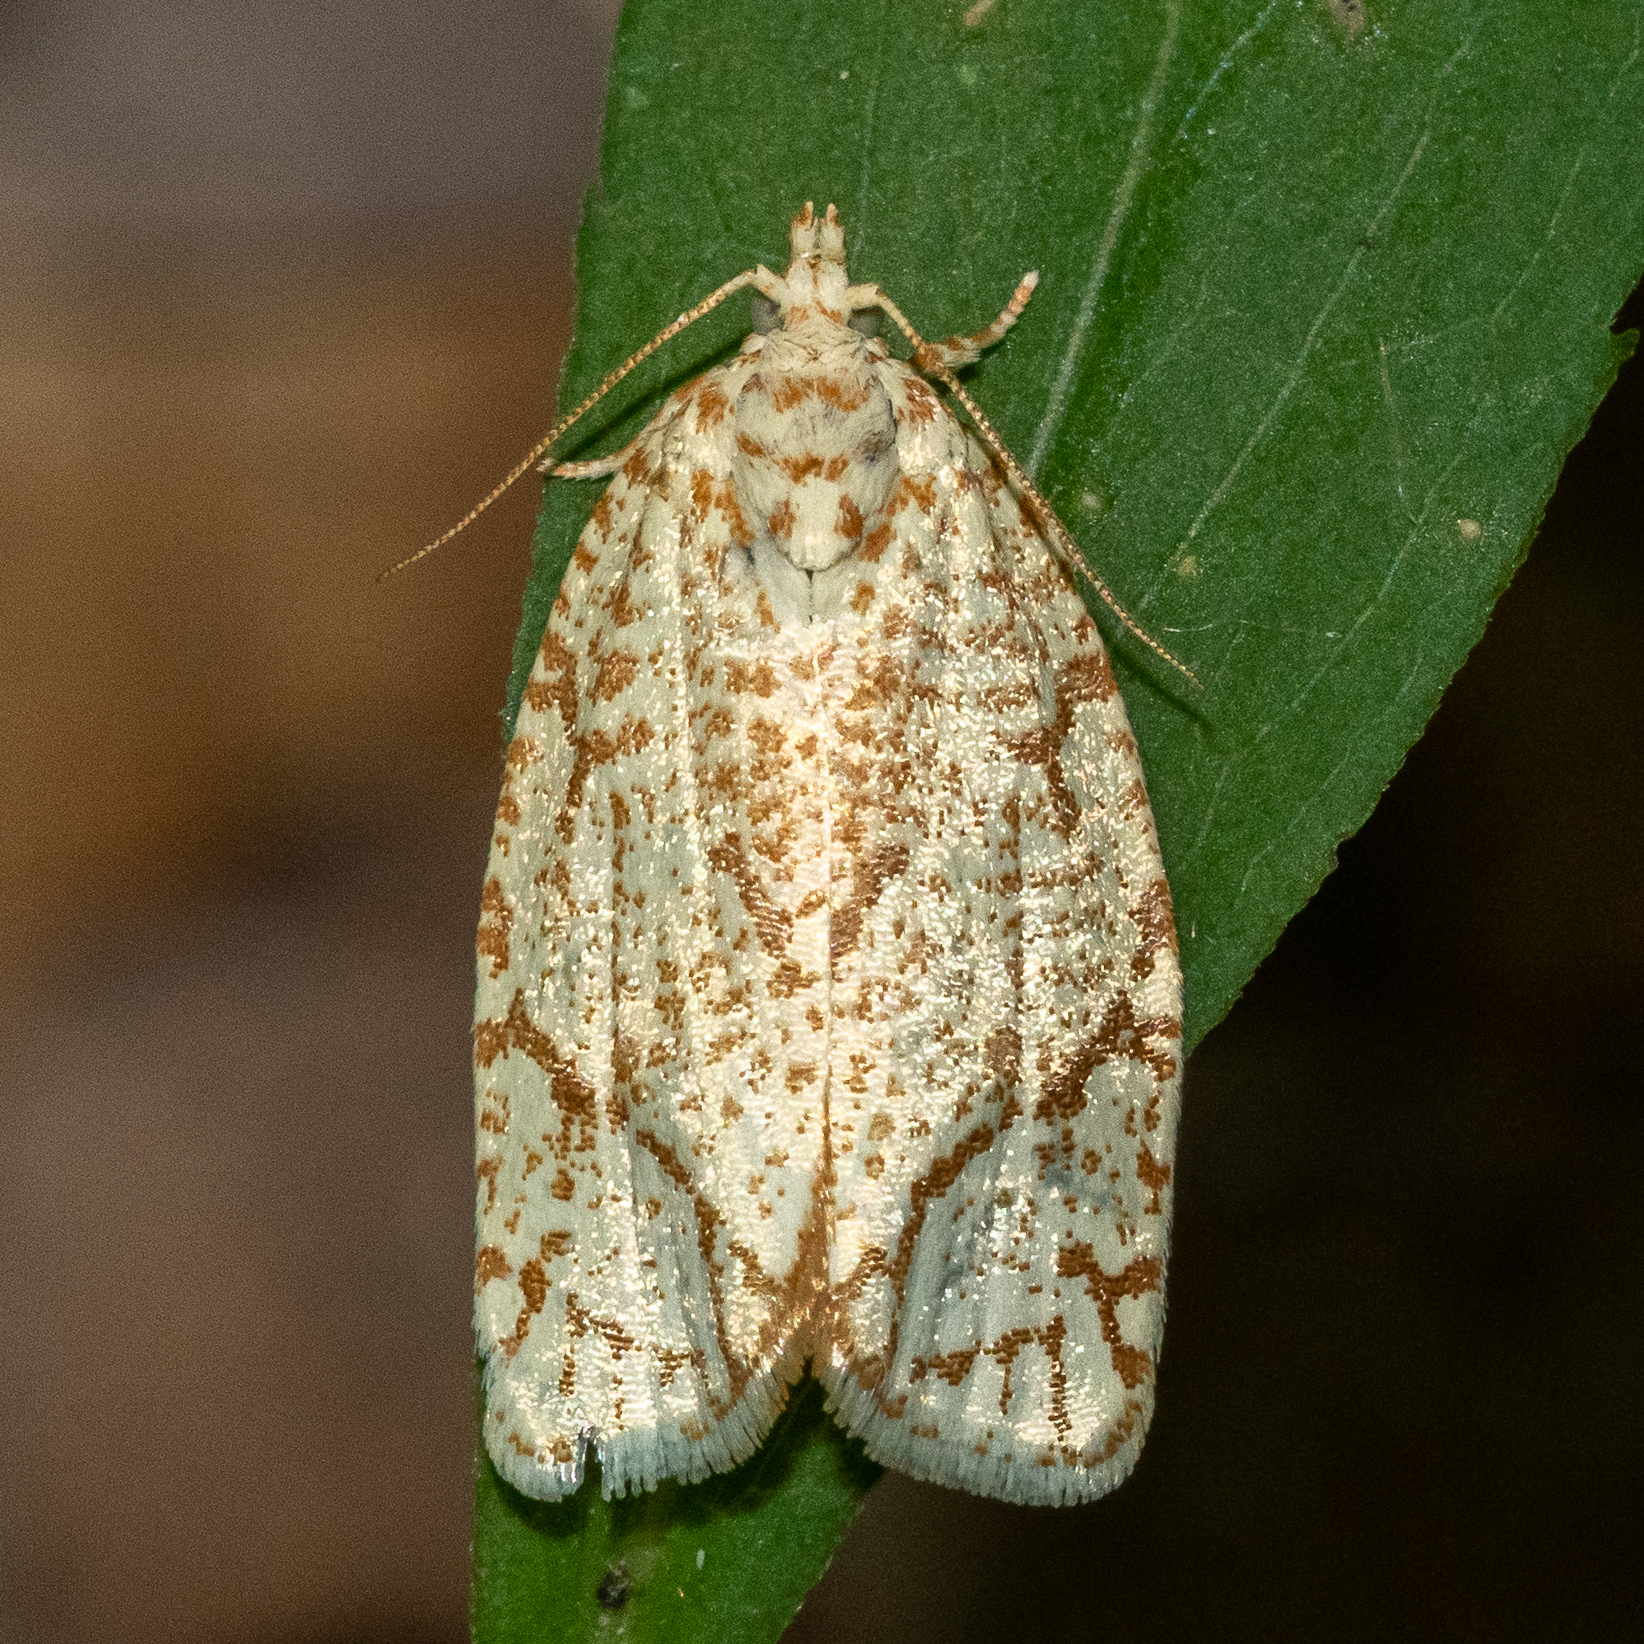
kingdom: Animalia
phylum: Arthropoda
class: Insecta
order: Lepidoptera
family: Tortricidae
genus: Argyrotaenia
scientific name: Argyrotaenia quercifoliana
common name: Yellow-winged oak leafroller moth
